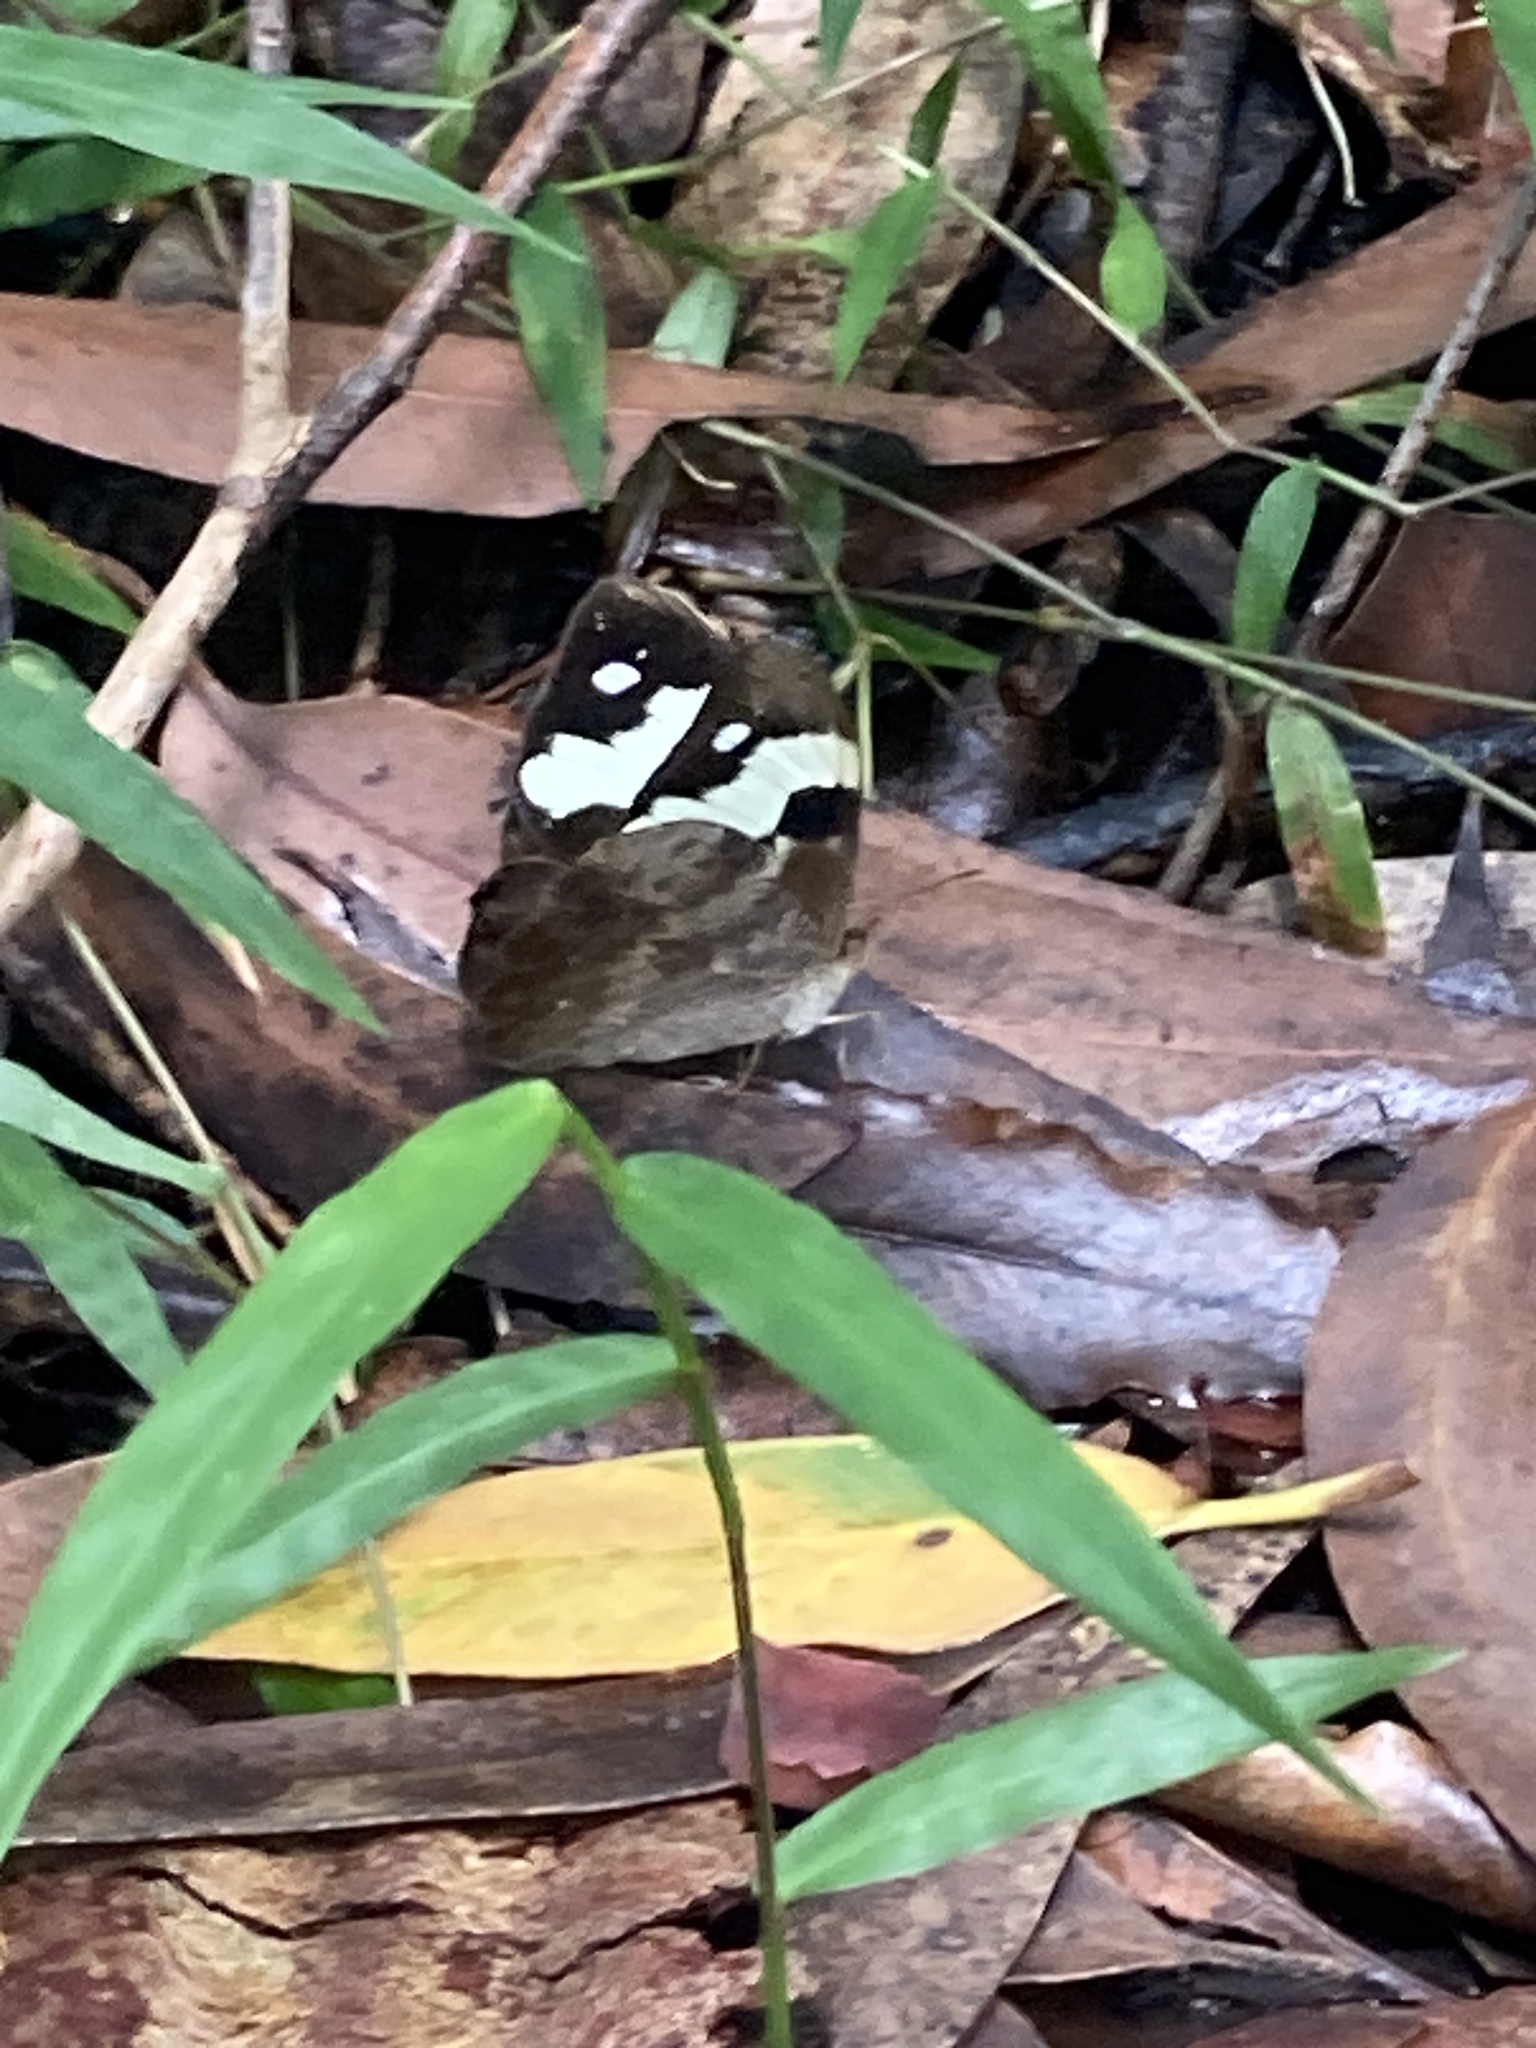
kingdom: Animalia
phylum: Arthropoda
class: Insecta
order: Lepidoptera
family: Nymphalidae
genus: Heteronympha
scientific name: Heteronympha mirifica
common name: Wonder brown
